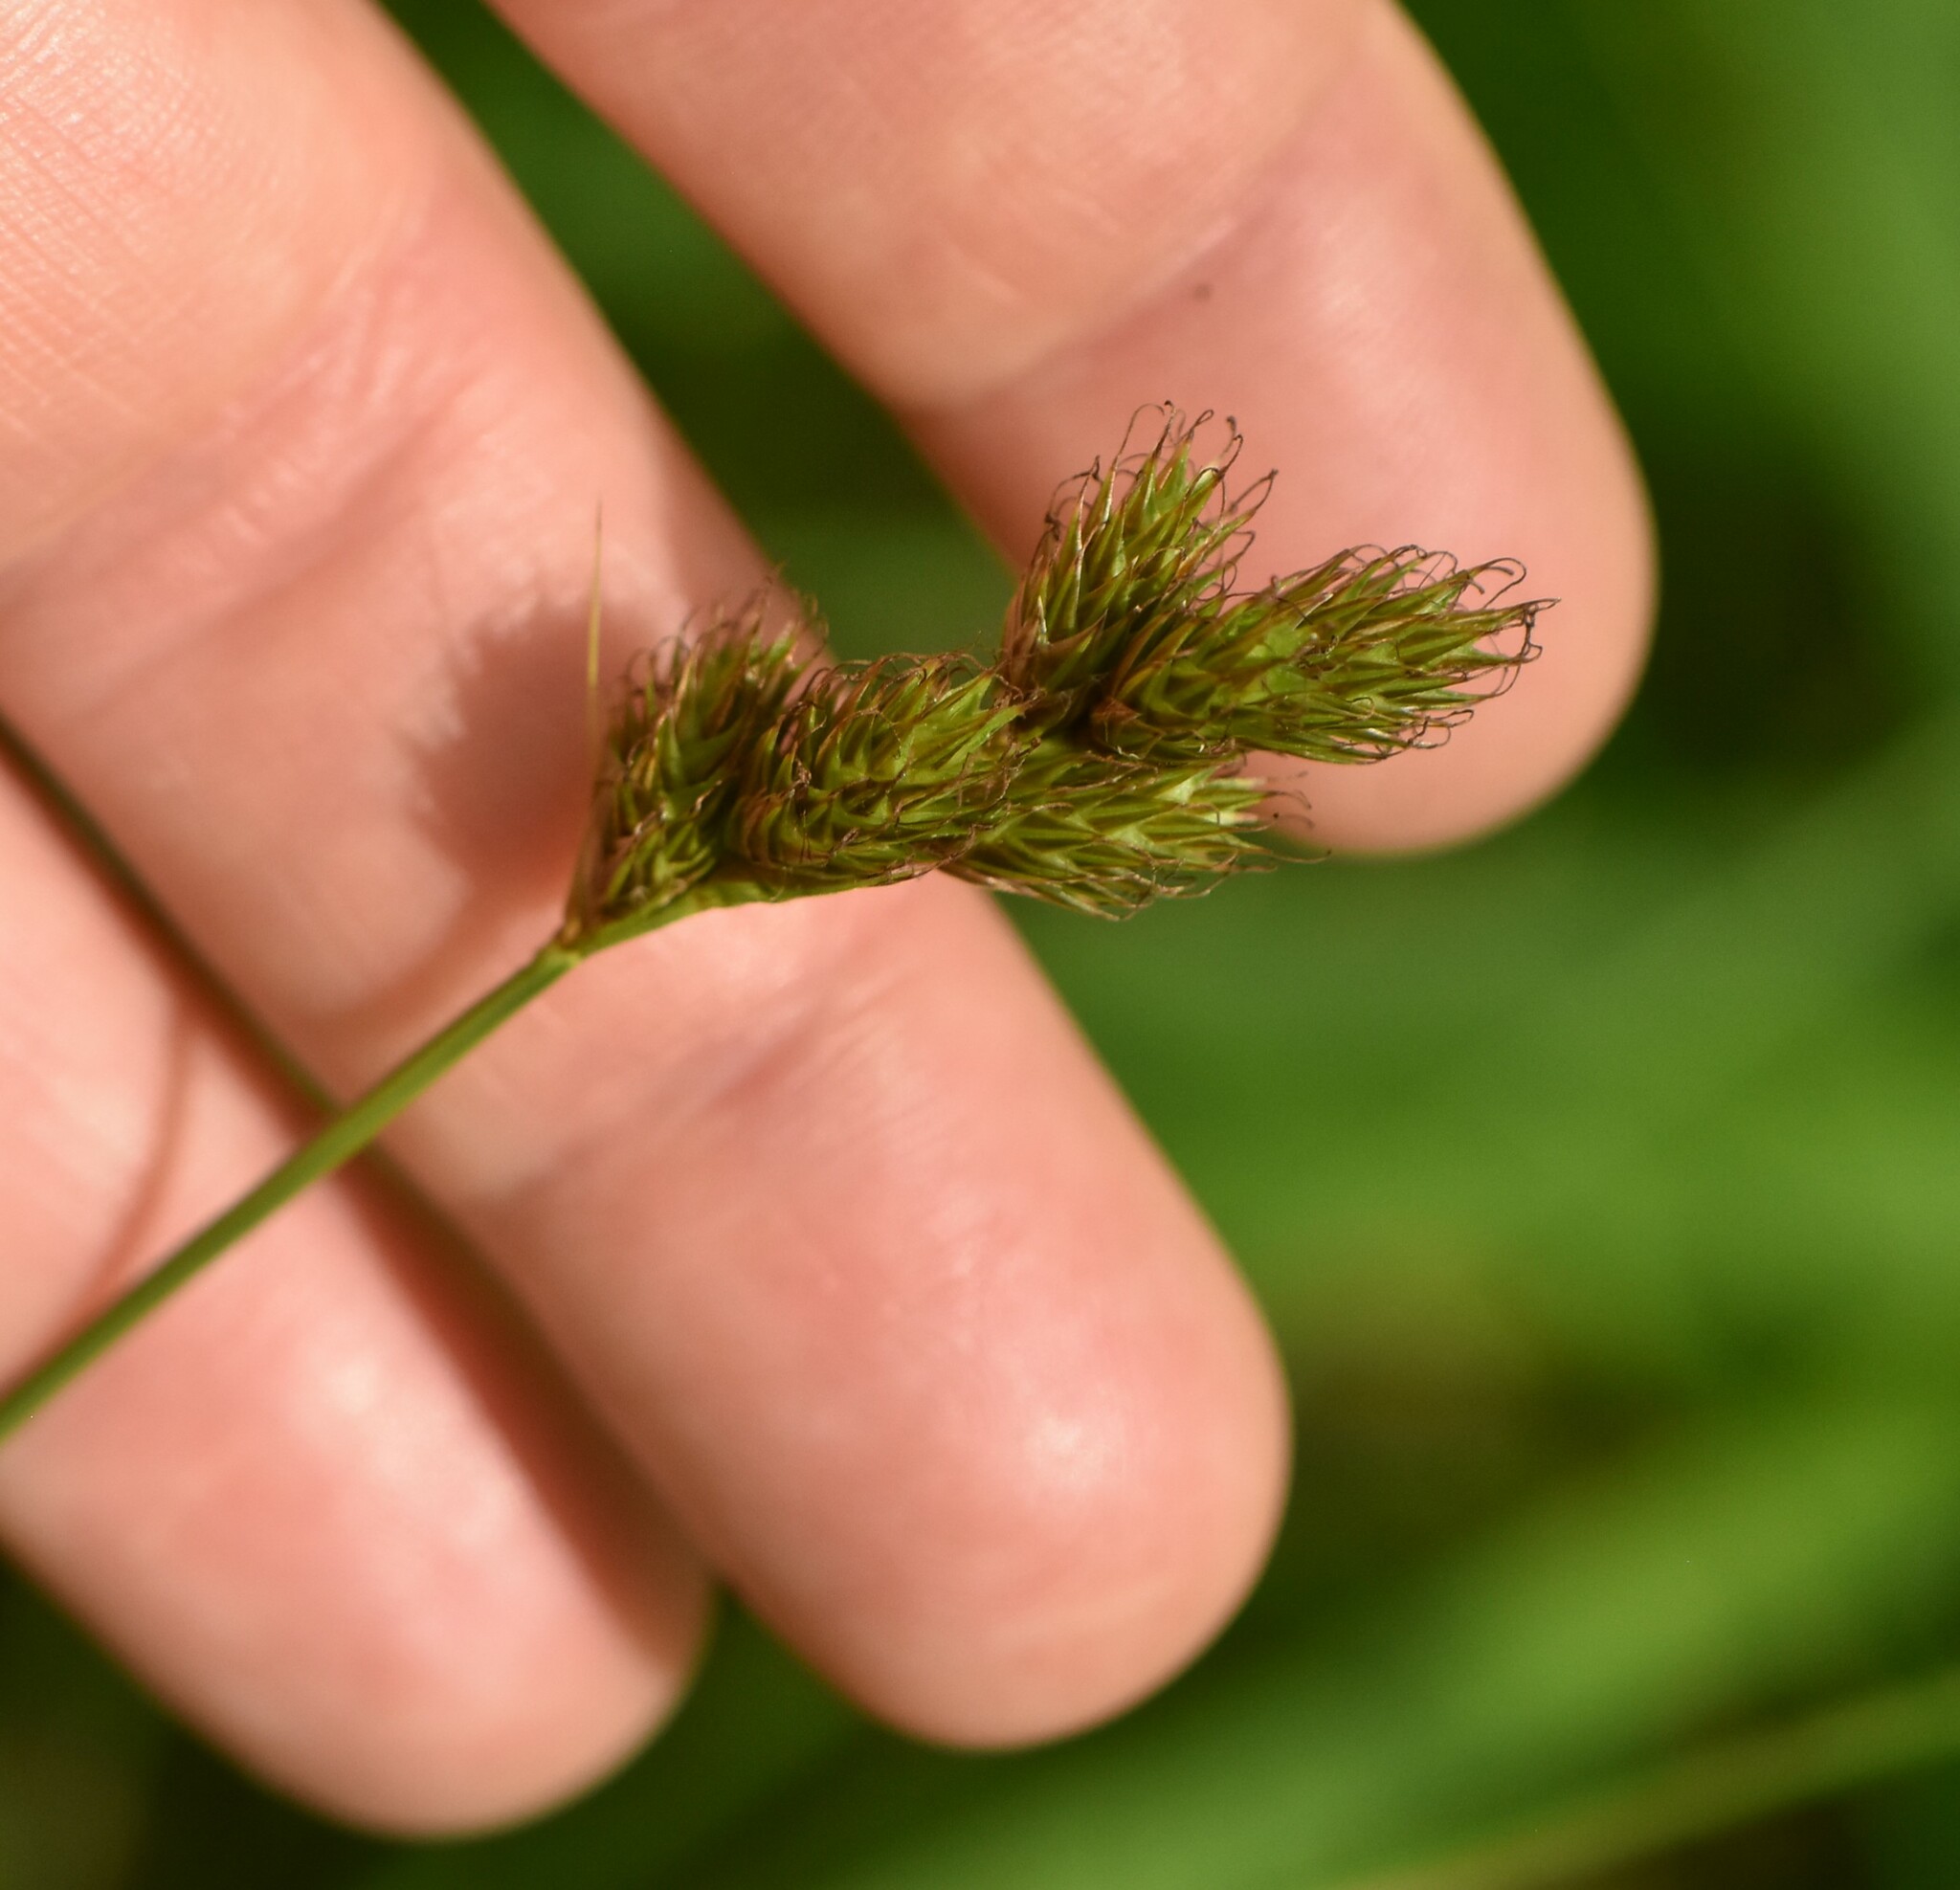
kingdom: Plantae
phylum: Tracheophyta
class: Liliopsida
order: Poales
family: Cyperaceae
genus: Carex
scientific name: Carex leporina
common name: Oval sedge
